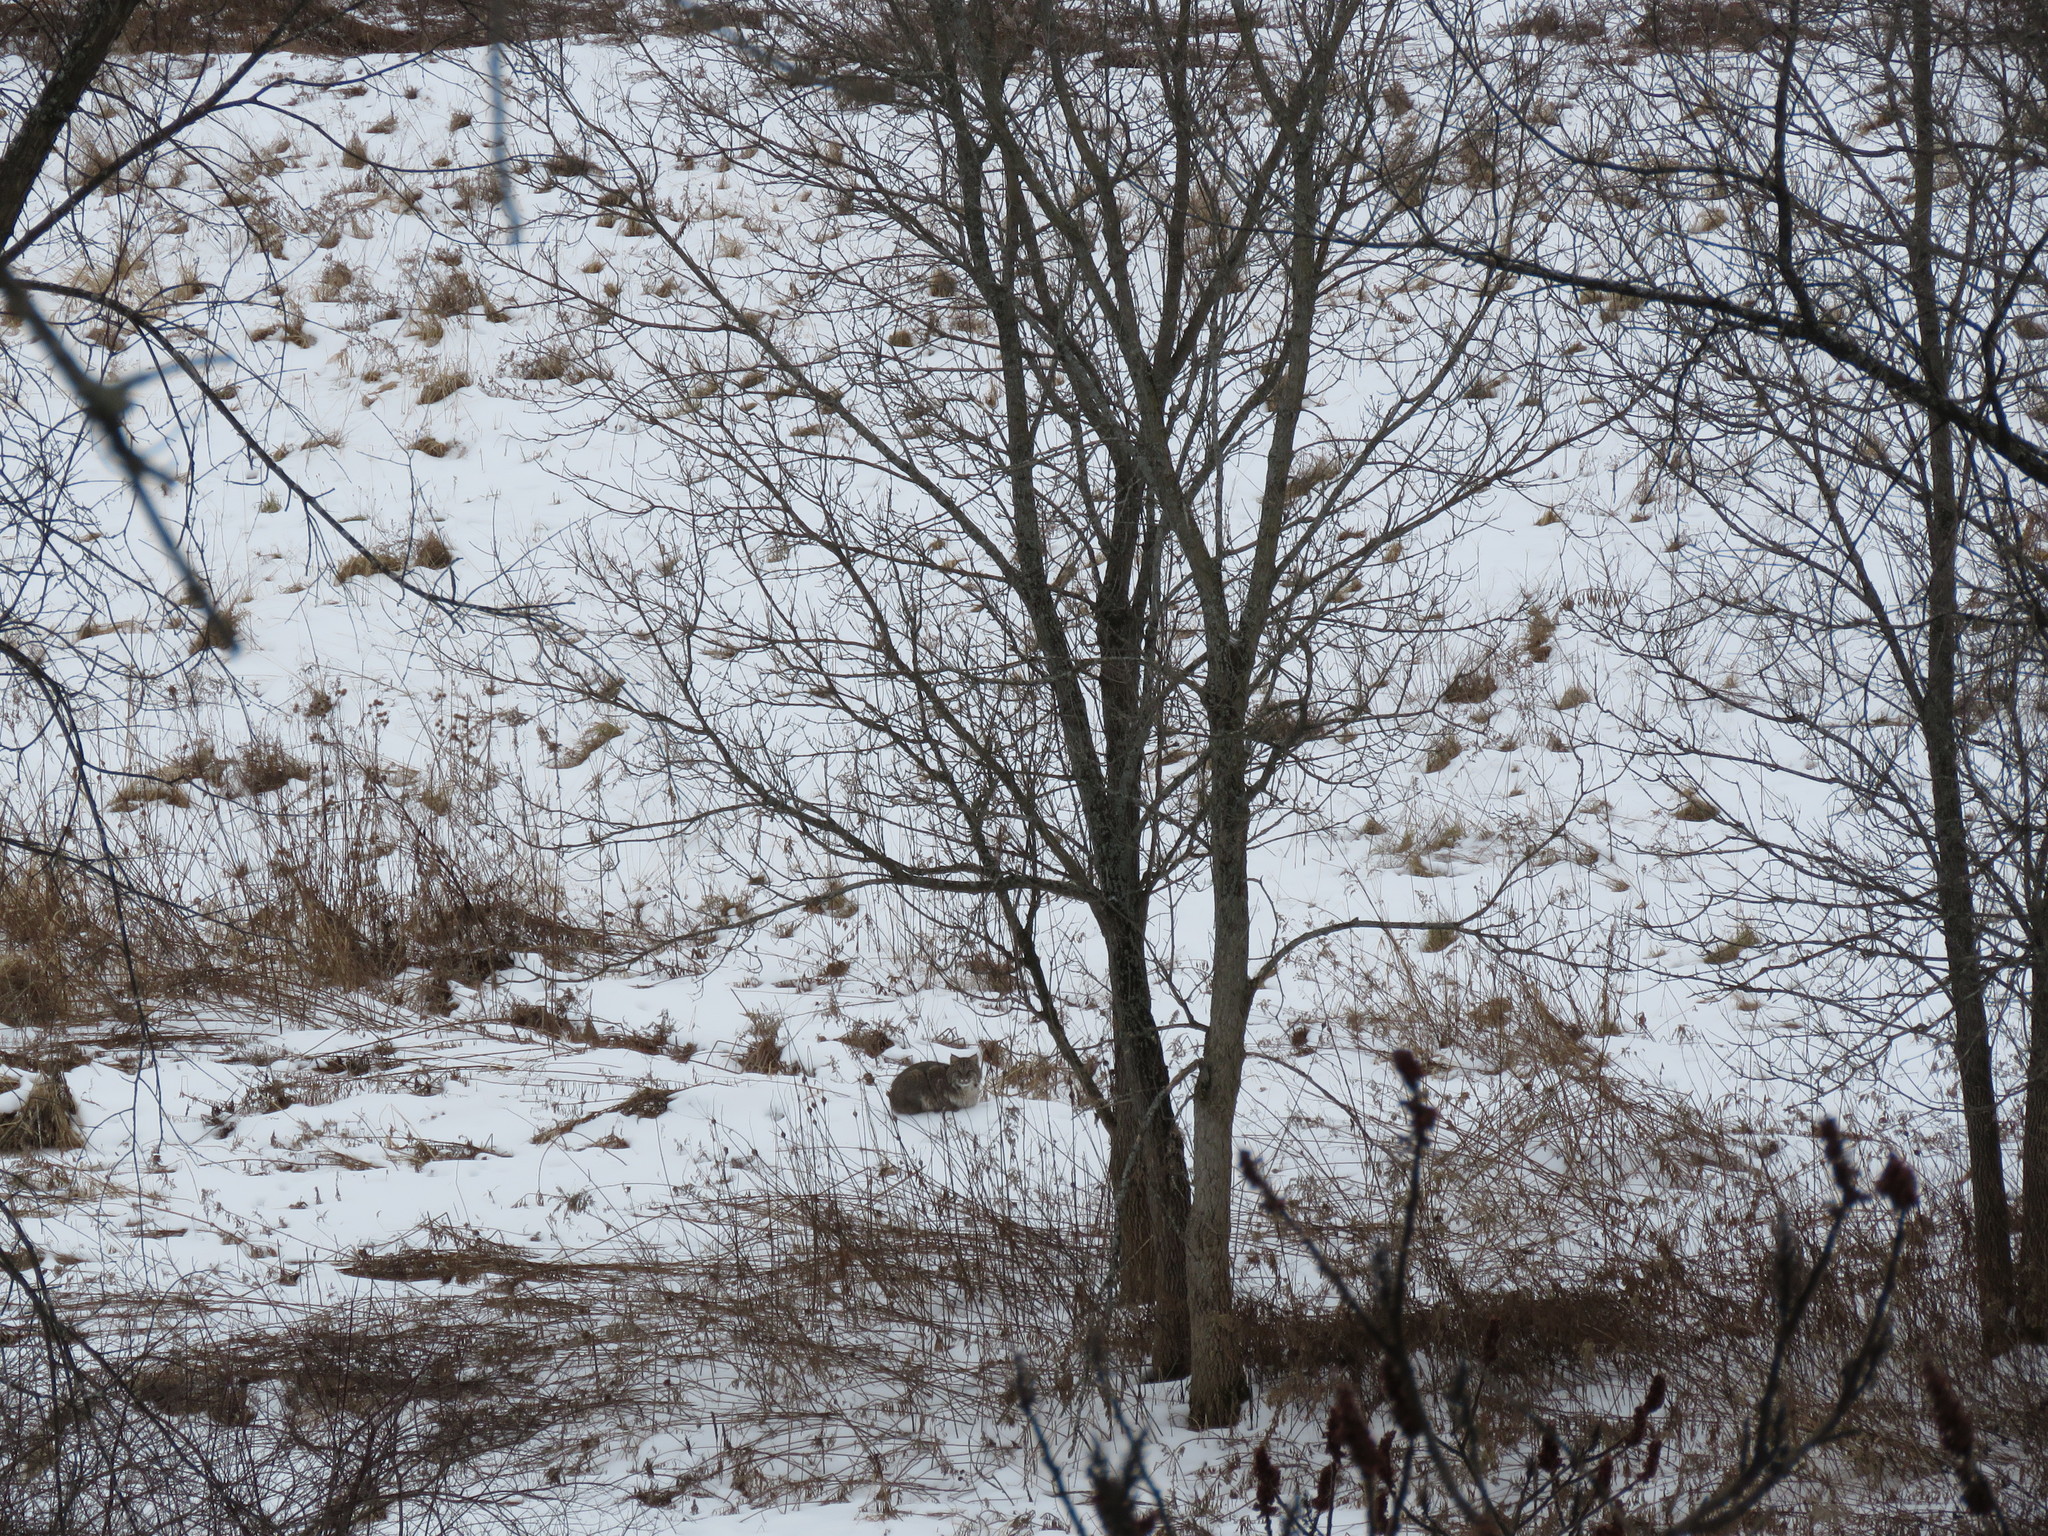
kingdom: Animalia
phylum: Chordata
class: Mammalia
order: Carnivora
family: Felidae
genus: Lynx
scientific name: Lynx rufus
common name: Bobcat
